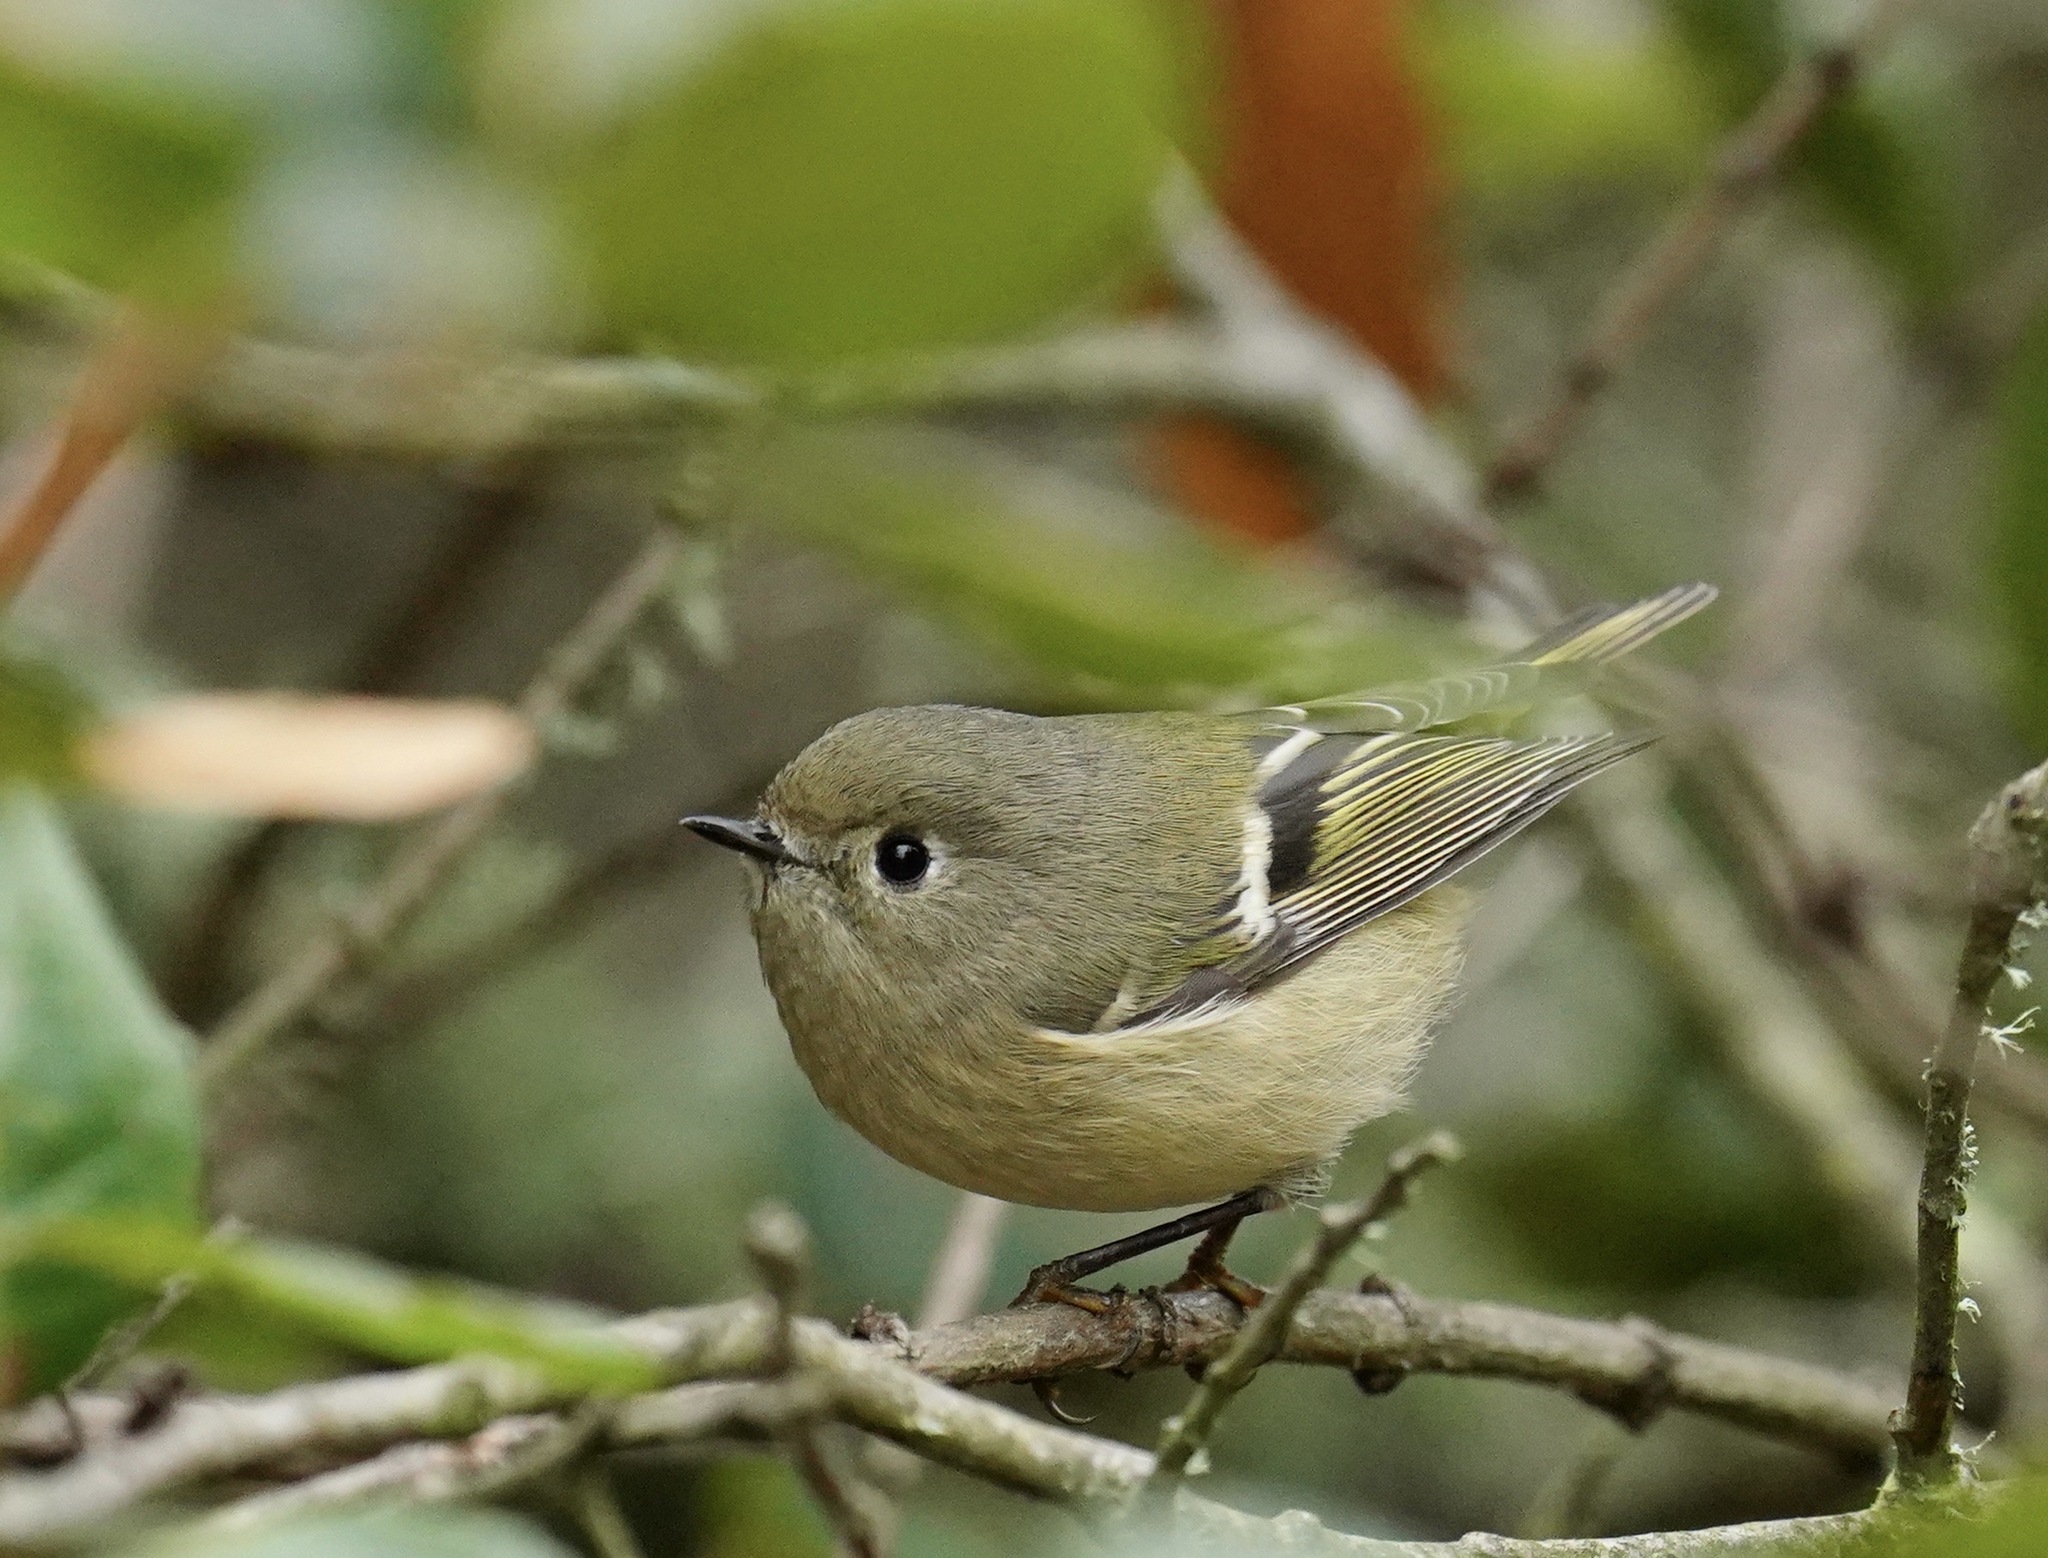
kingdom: Animalia
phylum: Chordata
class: Aves
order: Passeriformes
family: Regulidae
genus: Regulus
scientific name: Regulus calendula
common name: Ruby-crowned kinglet
